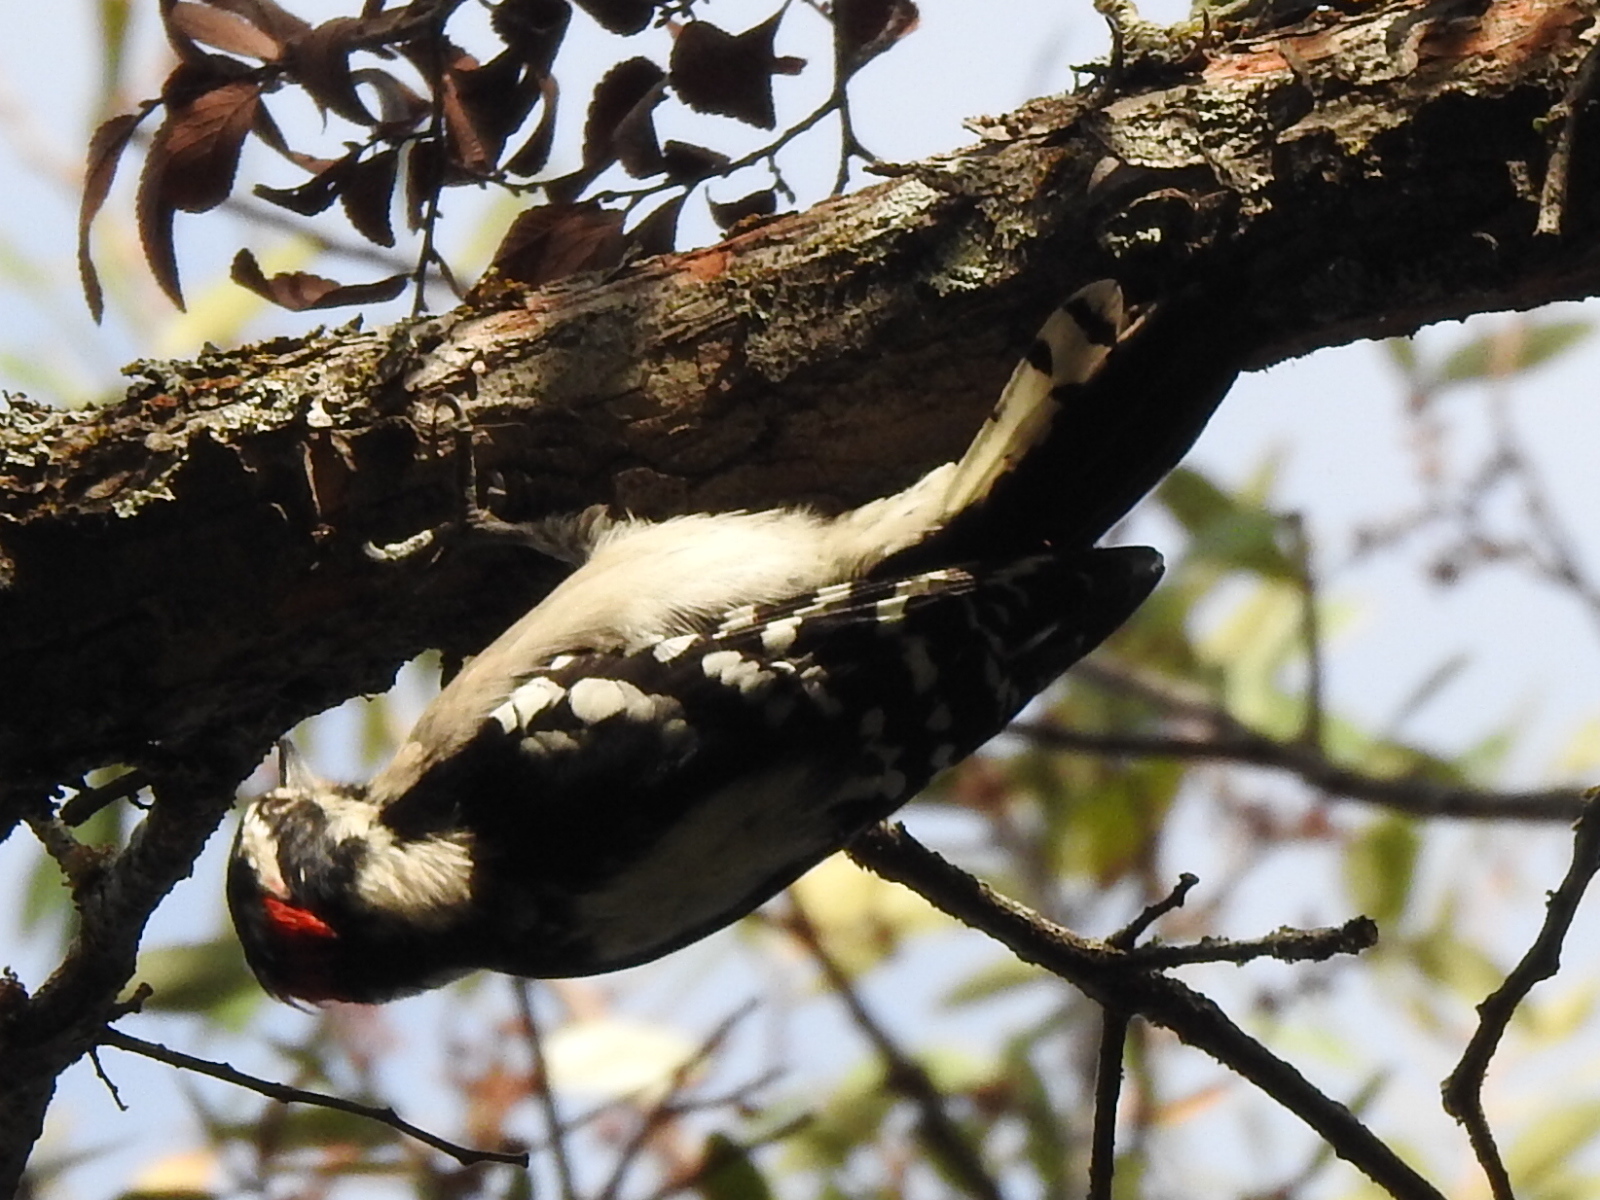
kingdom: Animalia
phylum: Chordata
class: Aves
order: Piciformes
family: Picidae
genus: Dryobates
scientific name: Dryobates pubescens
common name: Downy woodpecker
